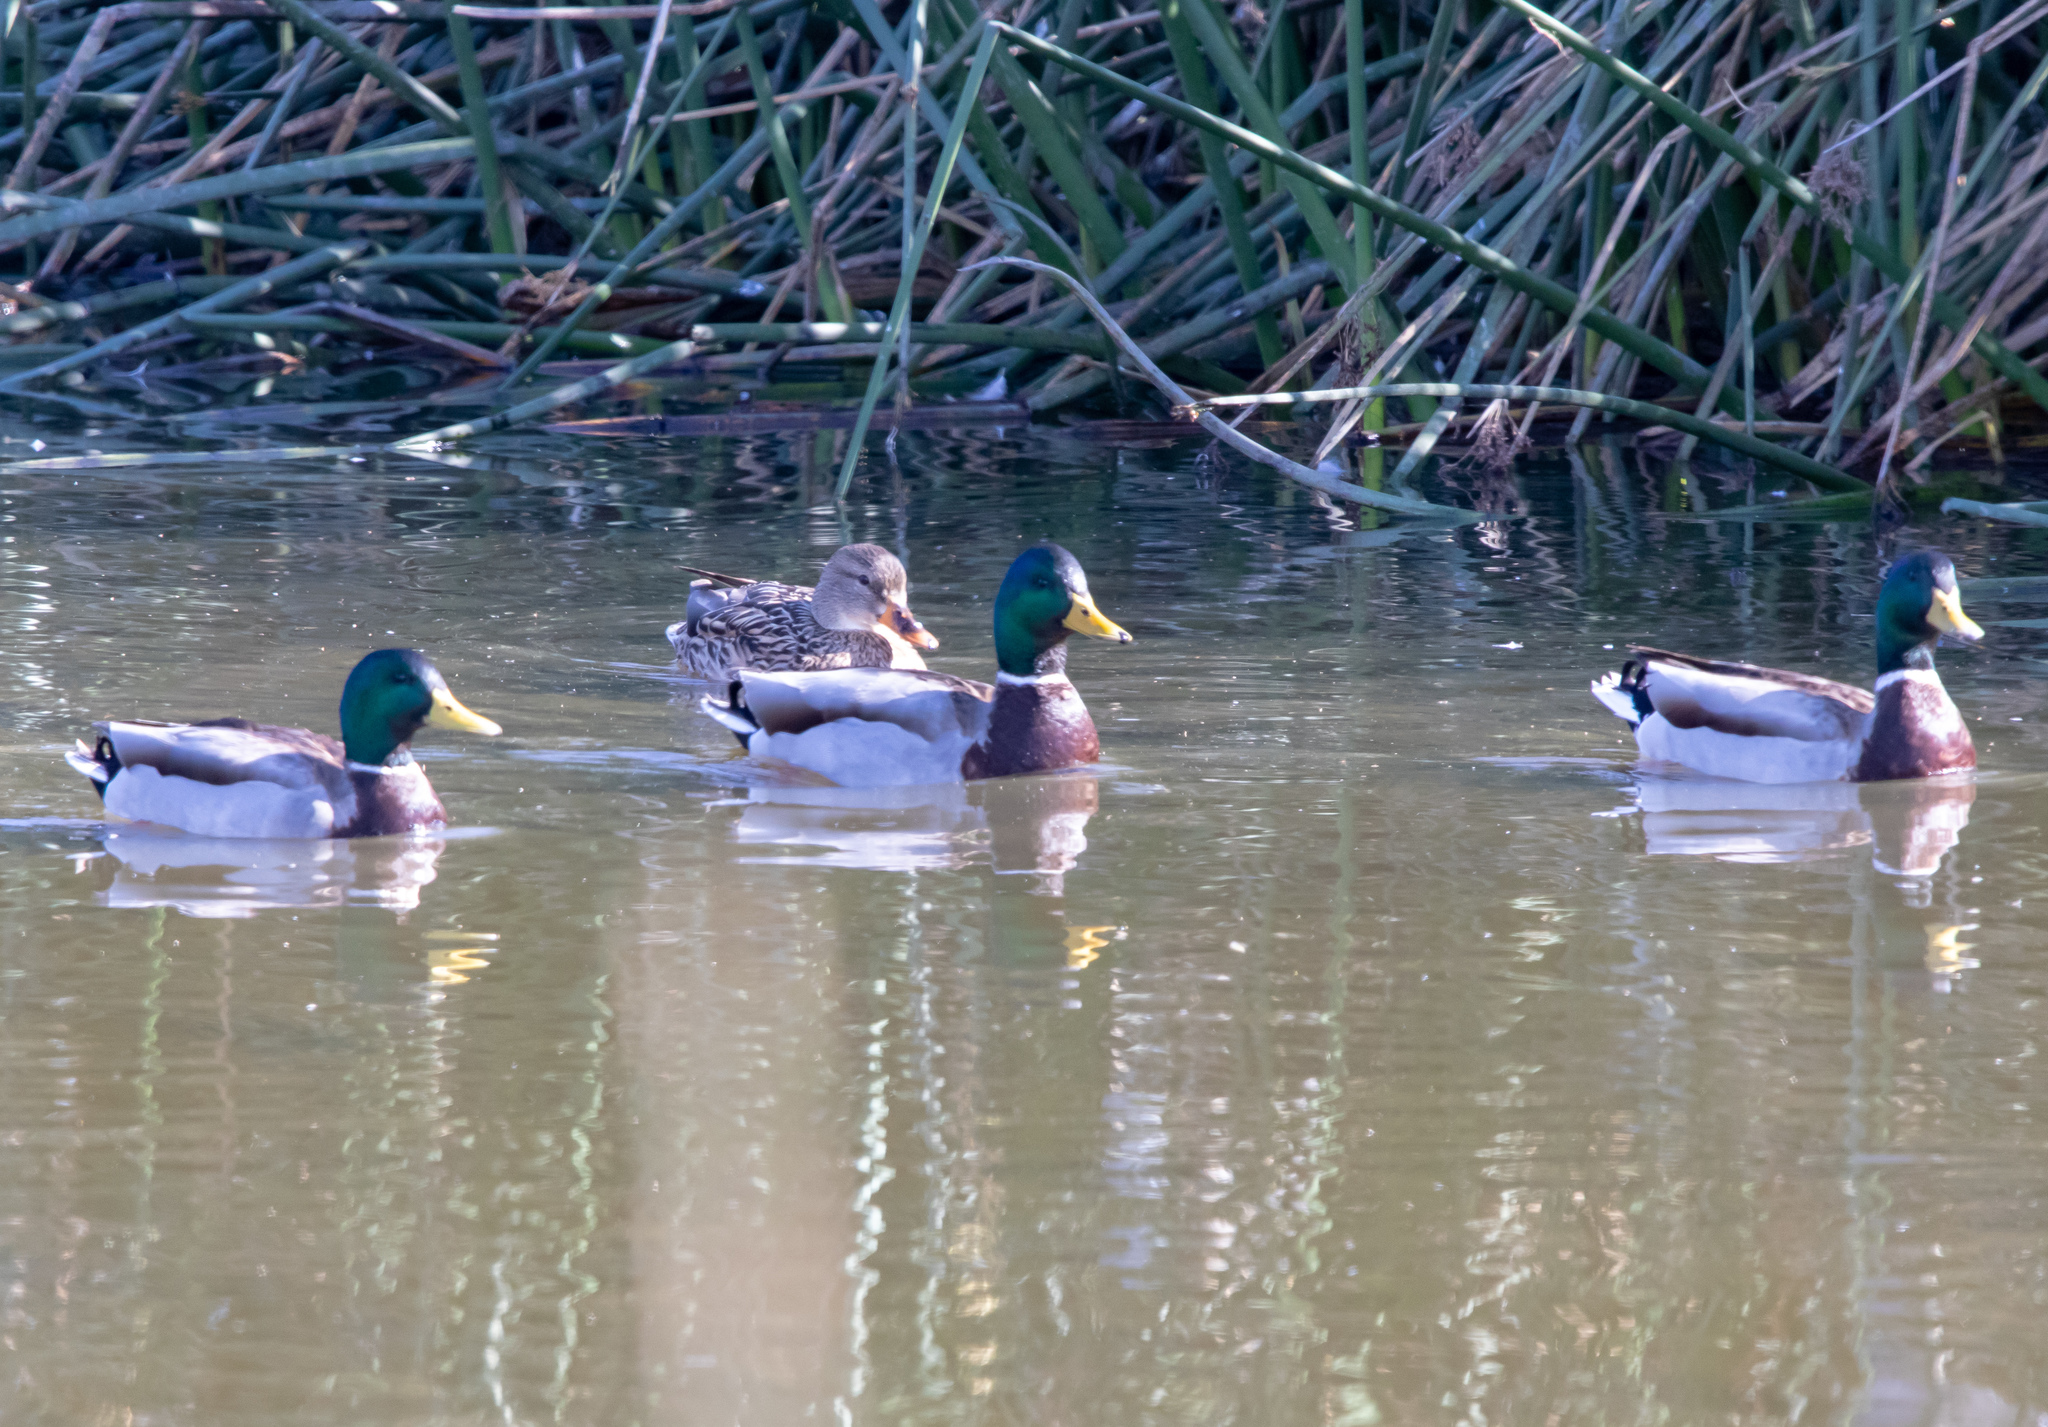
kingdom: Animalia
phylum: Chordata
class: Aves
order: Anseriformes
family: Anatidae
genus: Anas
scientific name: Anas platyrhynchos
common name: Mallard
